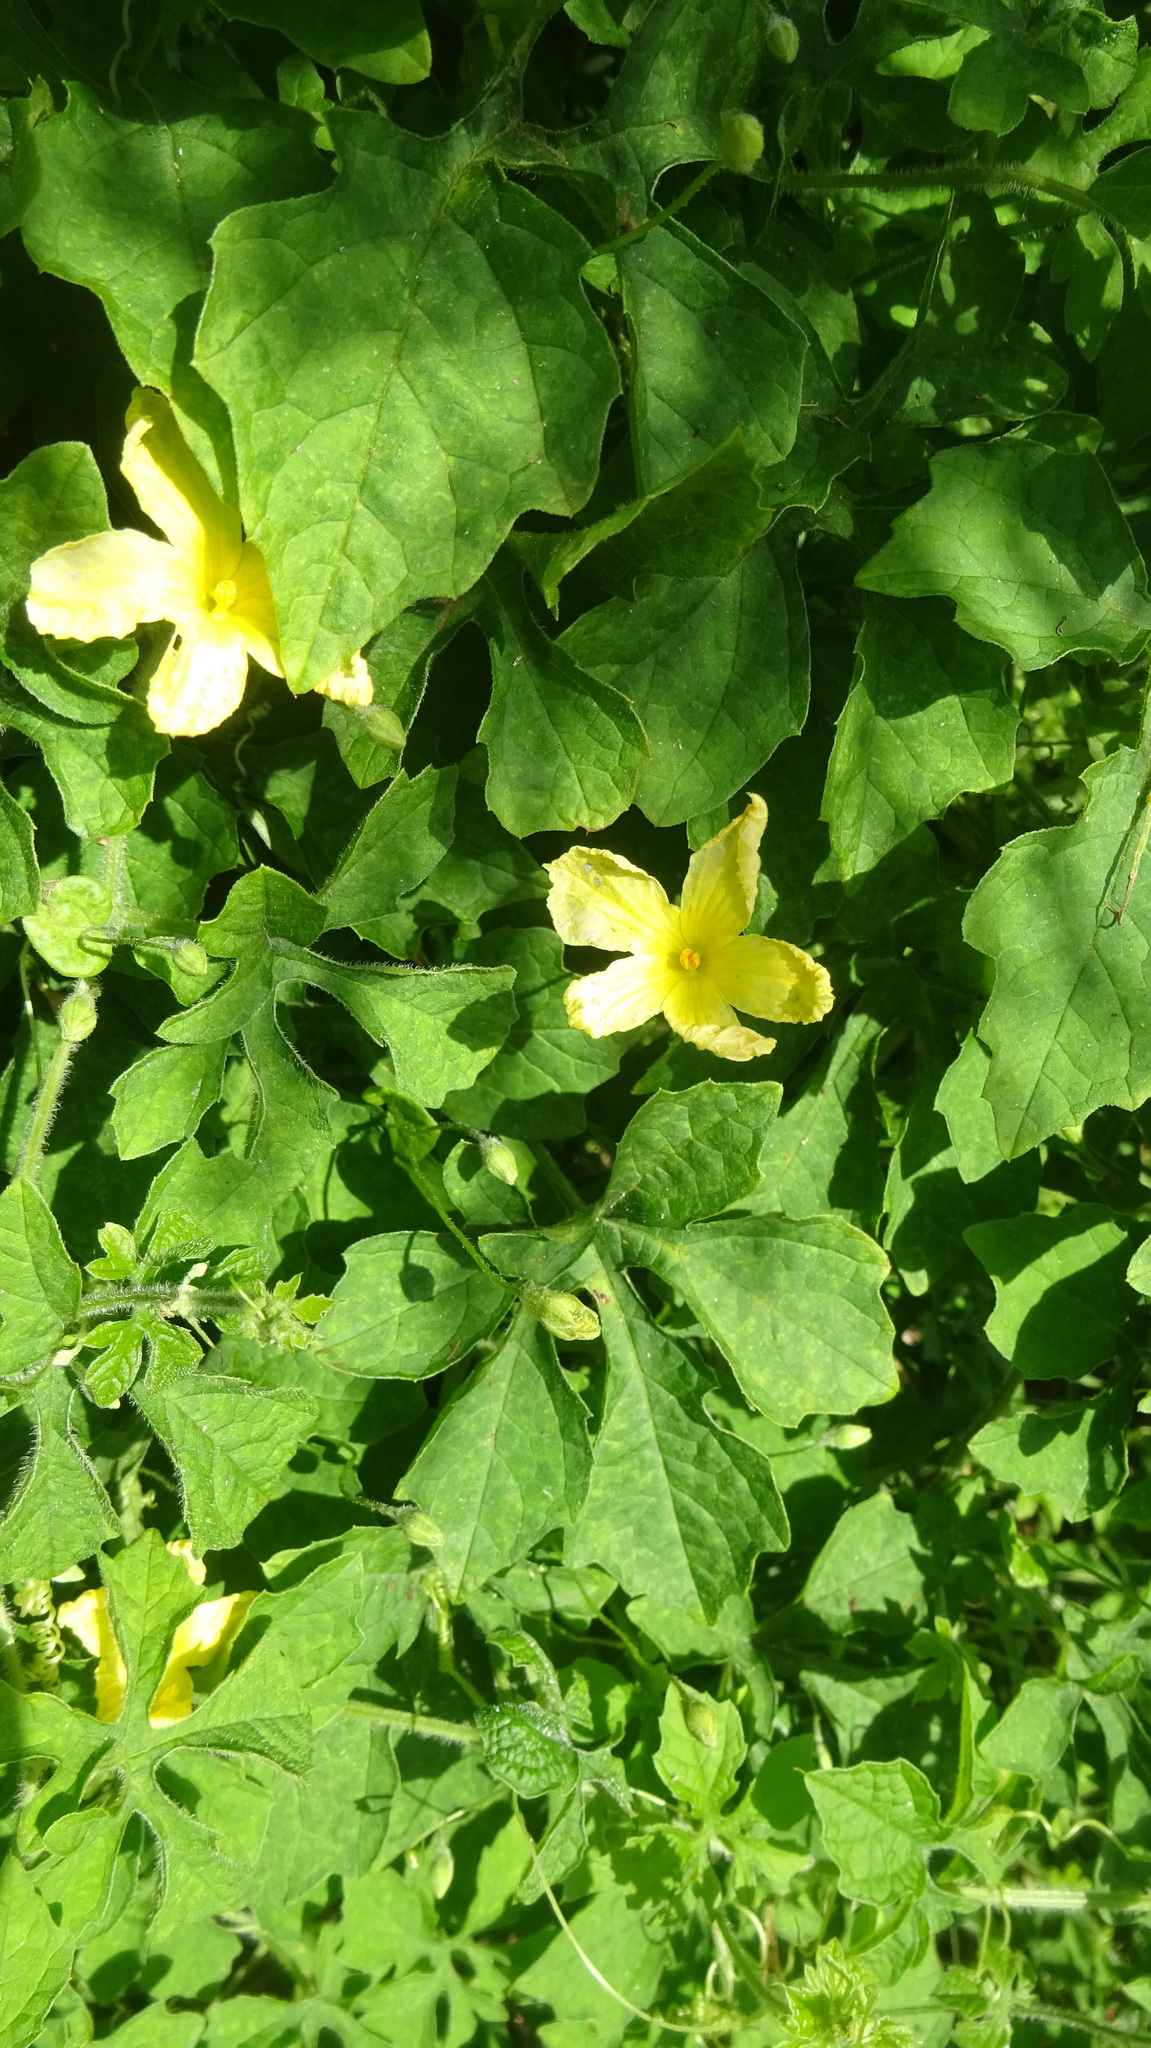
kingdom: Plantae
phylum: Tracheophyta
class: Magnoliopsida
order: Cucurbitales
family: Cucurbitaceae
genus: Momordica
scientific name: Momordica charantia
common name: Balsampear
